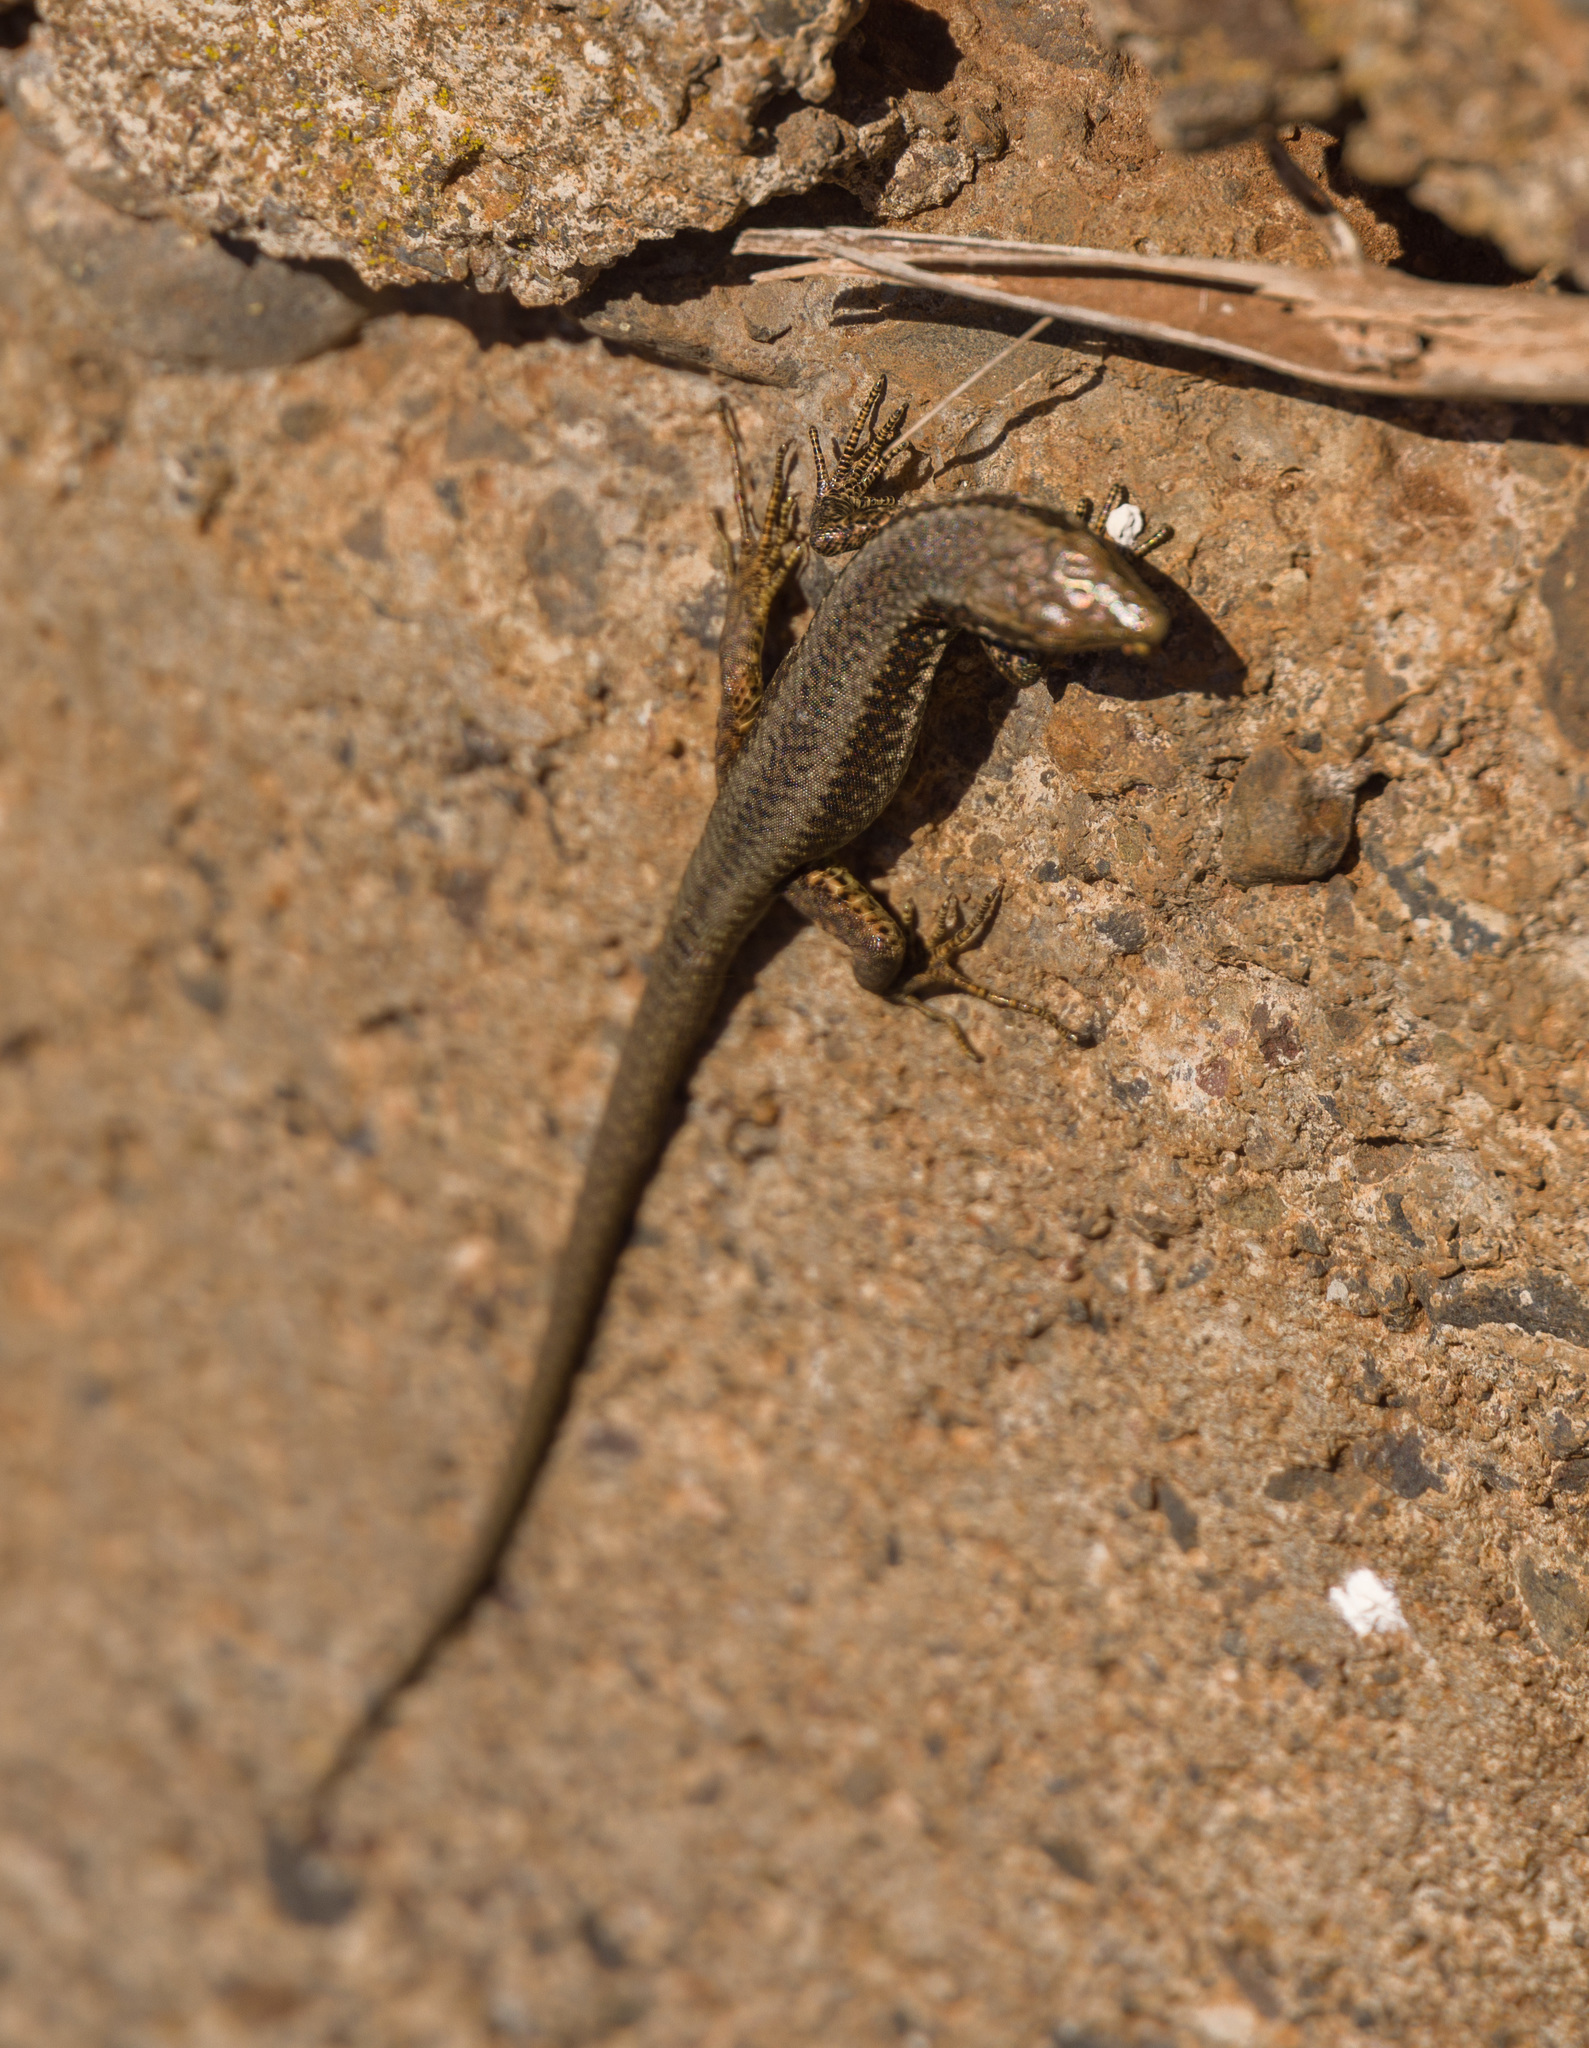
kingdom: Animalia
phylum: Chordata
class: Squamata
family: Lacertidae
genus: Teira
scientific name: Teira dugesii
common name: Madeira lizard
